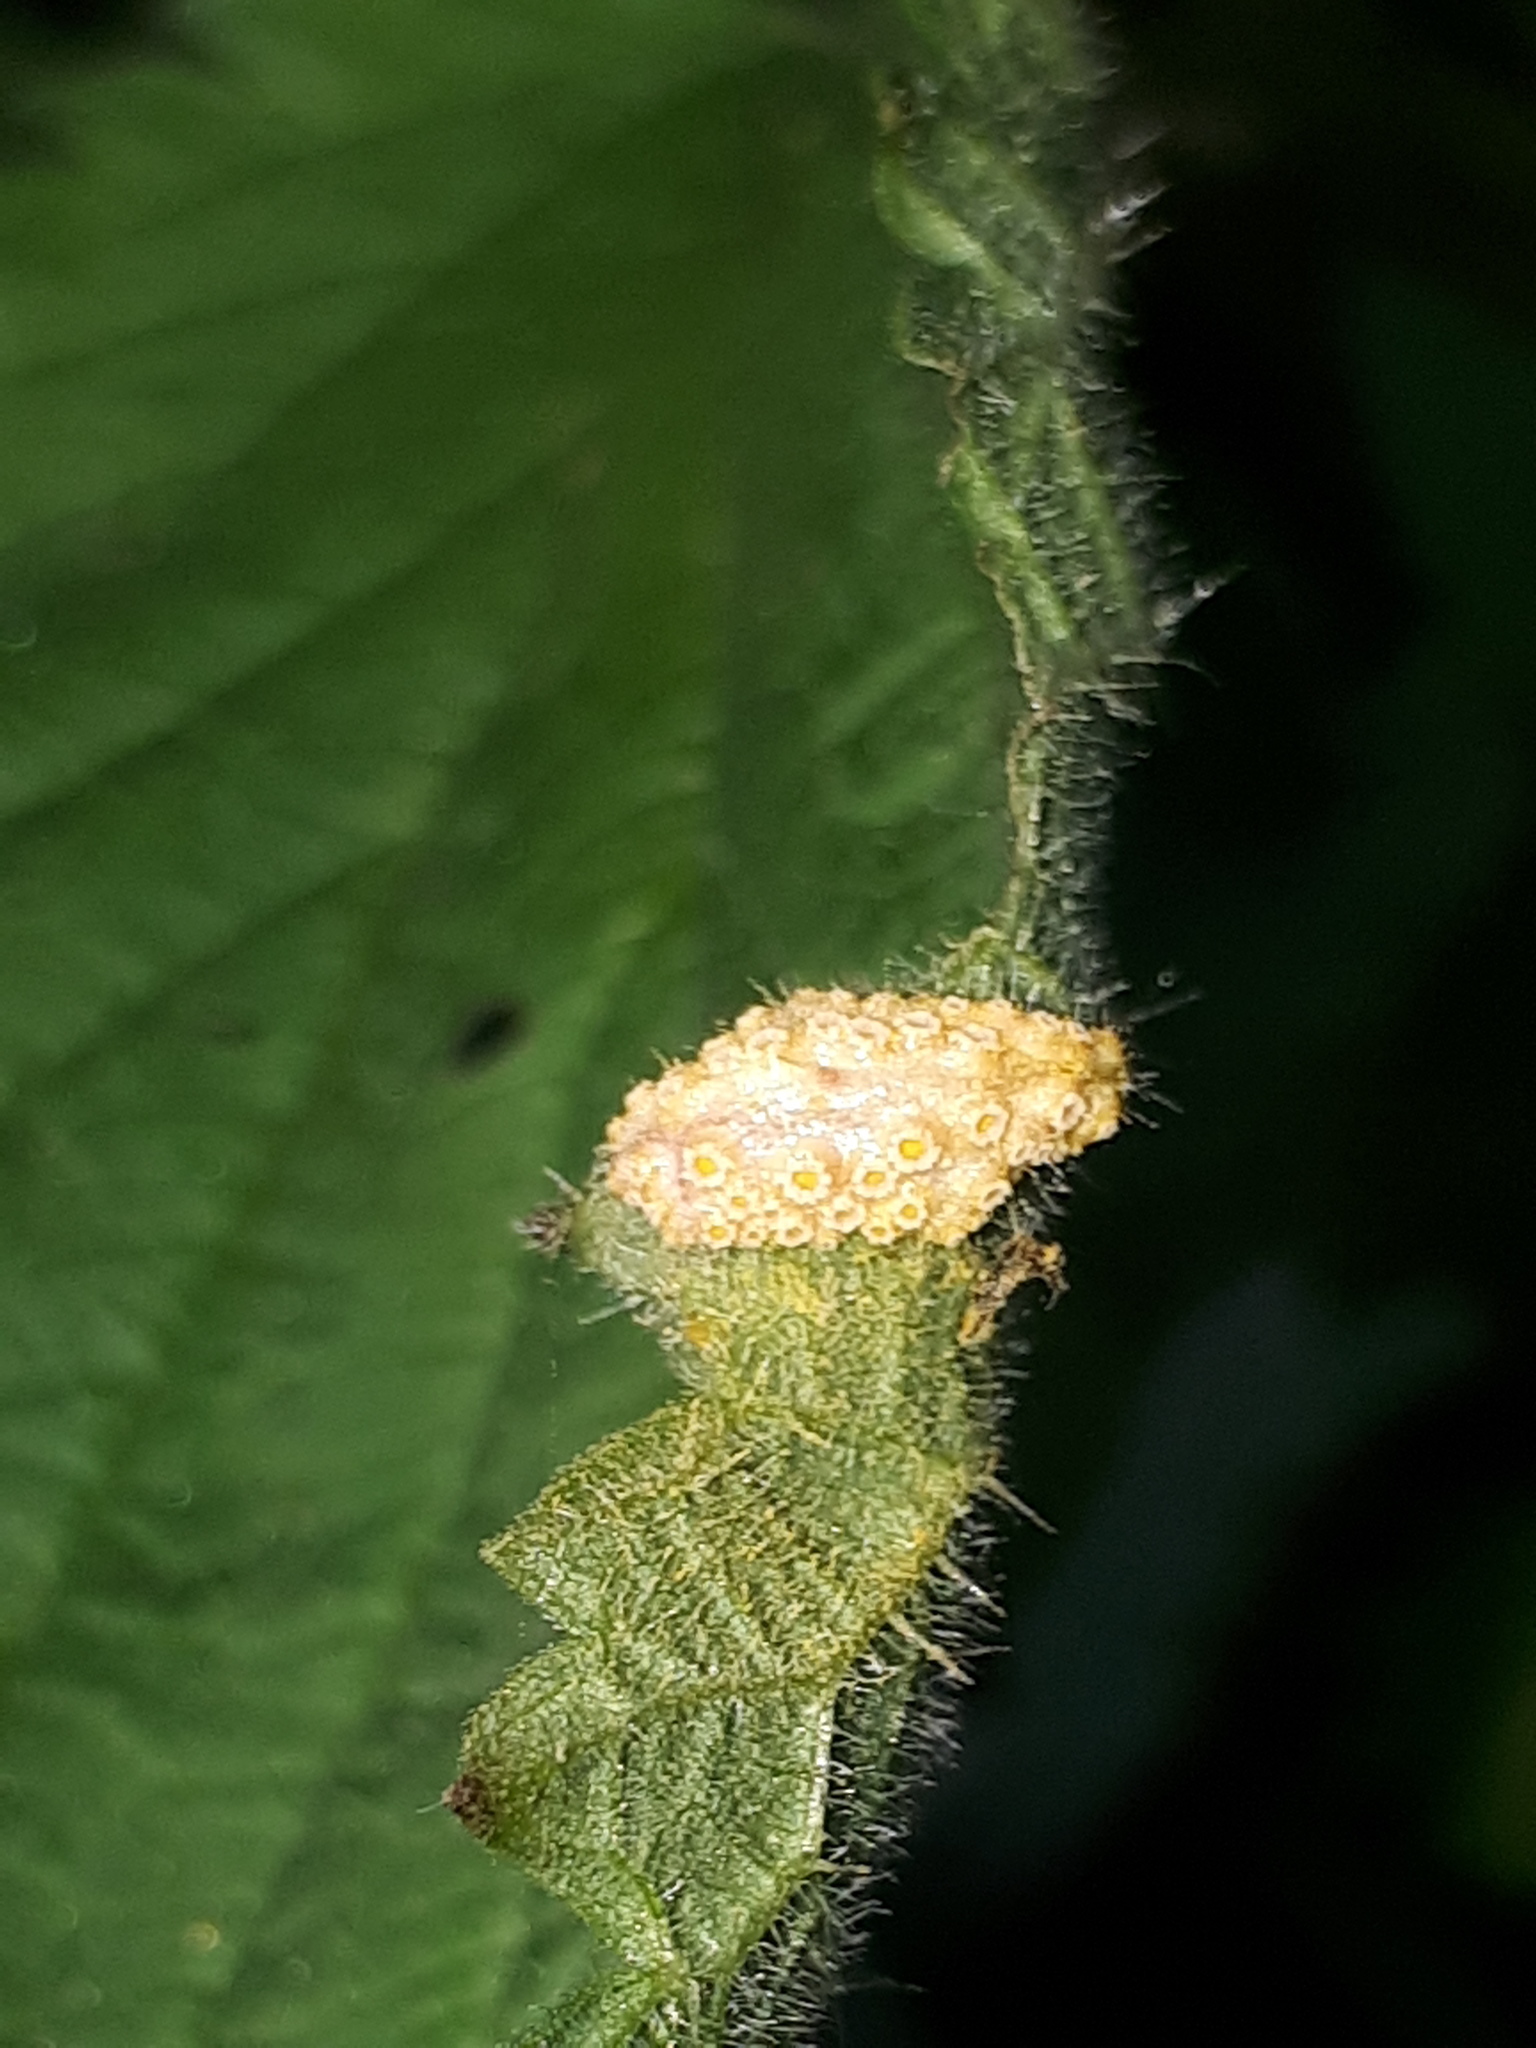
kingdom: Fungi
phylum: Basidiomycota
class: Pucciniomycetes
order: Pucciniales
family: Pucciniaceae
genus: Puccinia
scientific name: Puccinia urticata
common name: Nettle clustercup rust fungus
